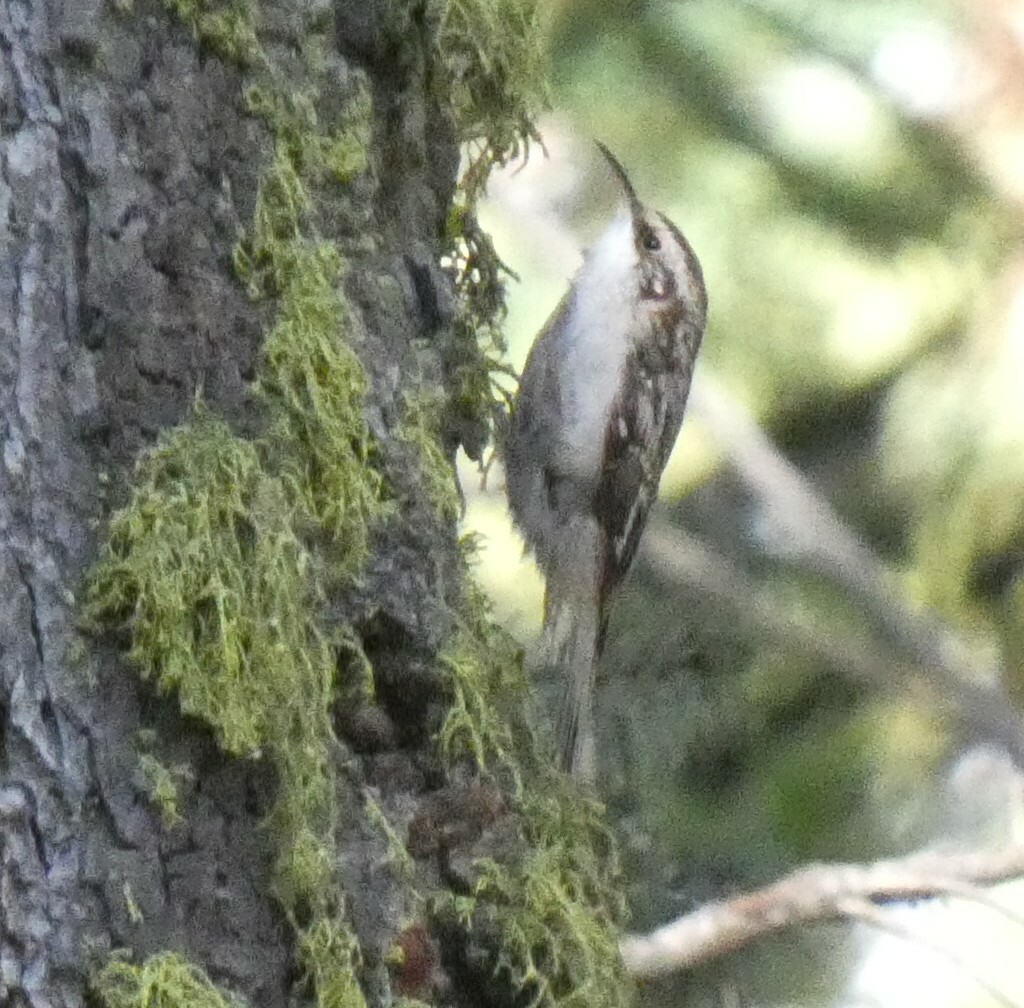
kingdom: Animalia
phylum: Chordata
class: Aves
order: Passeriformes
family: Certhiidae
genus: Certhia
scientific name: Certhia americana
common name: Brown creeper
